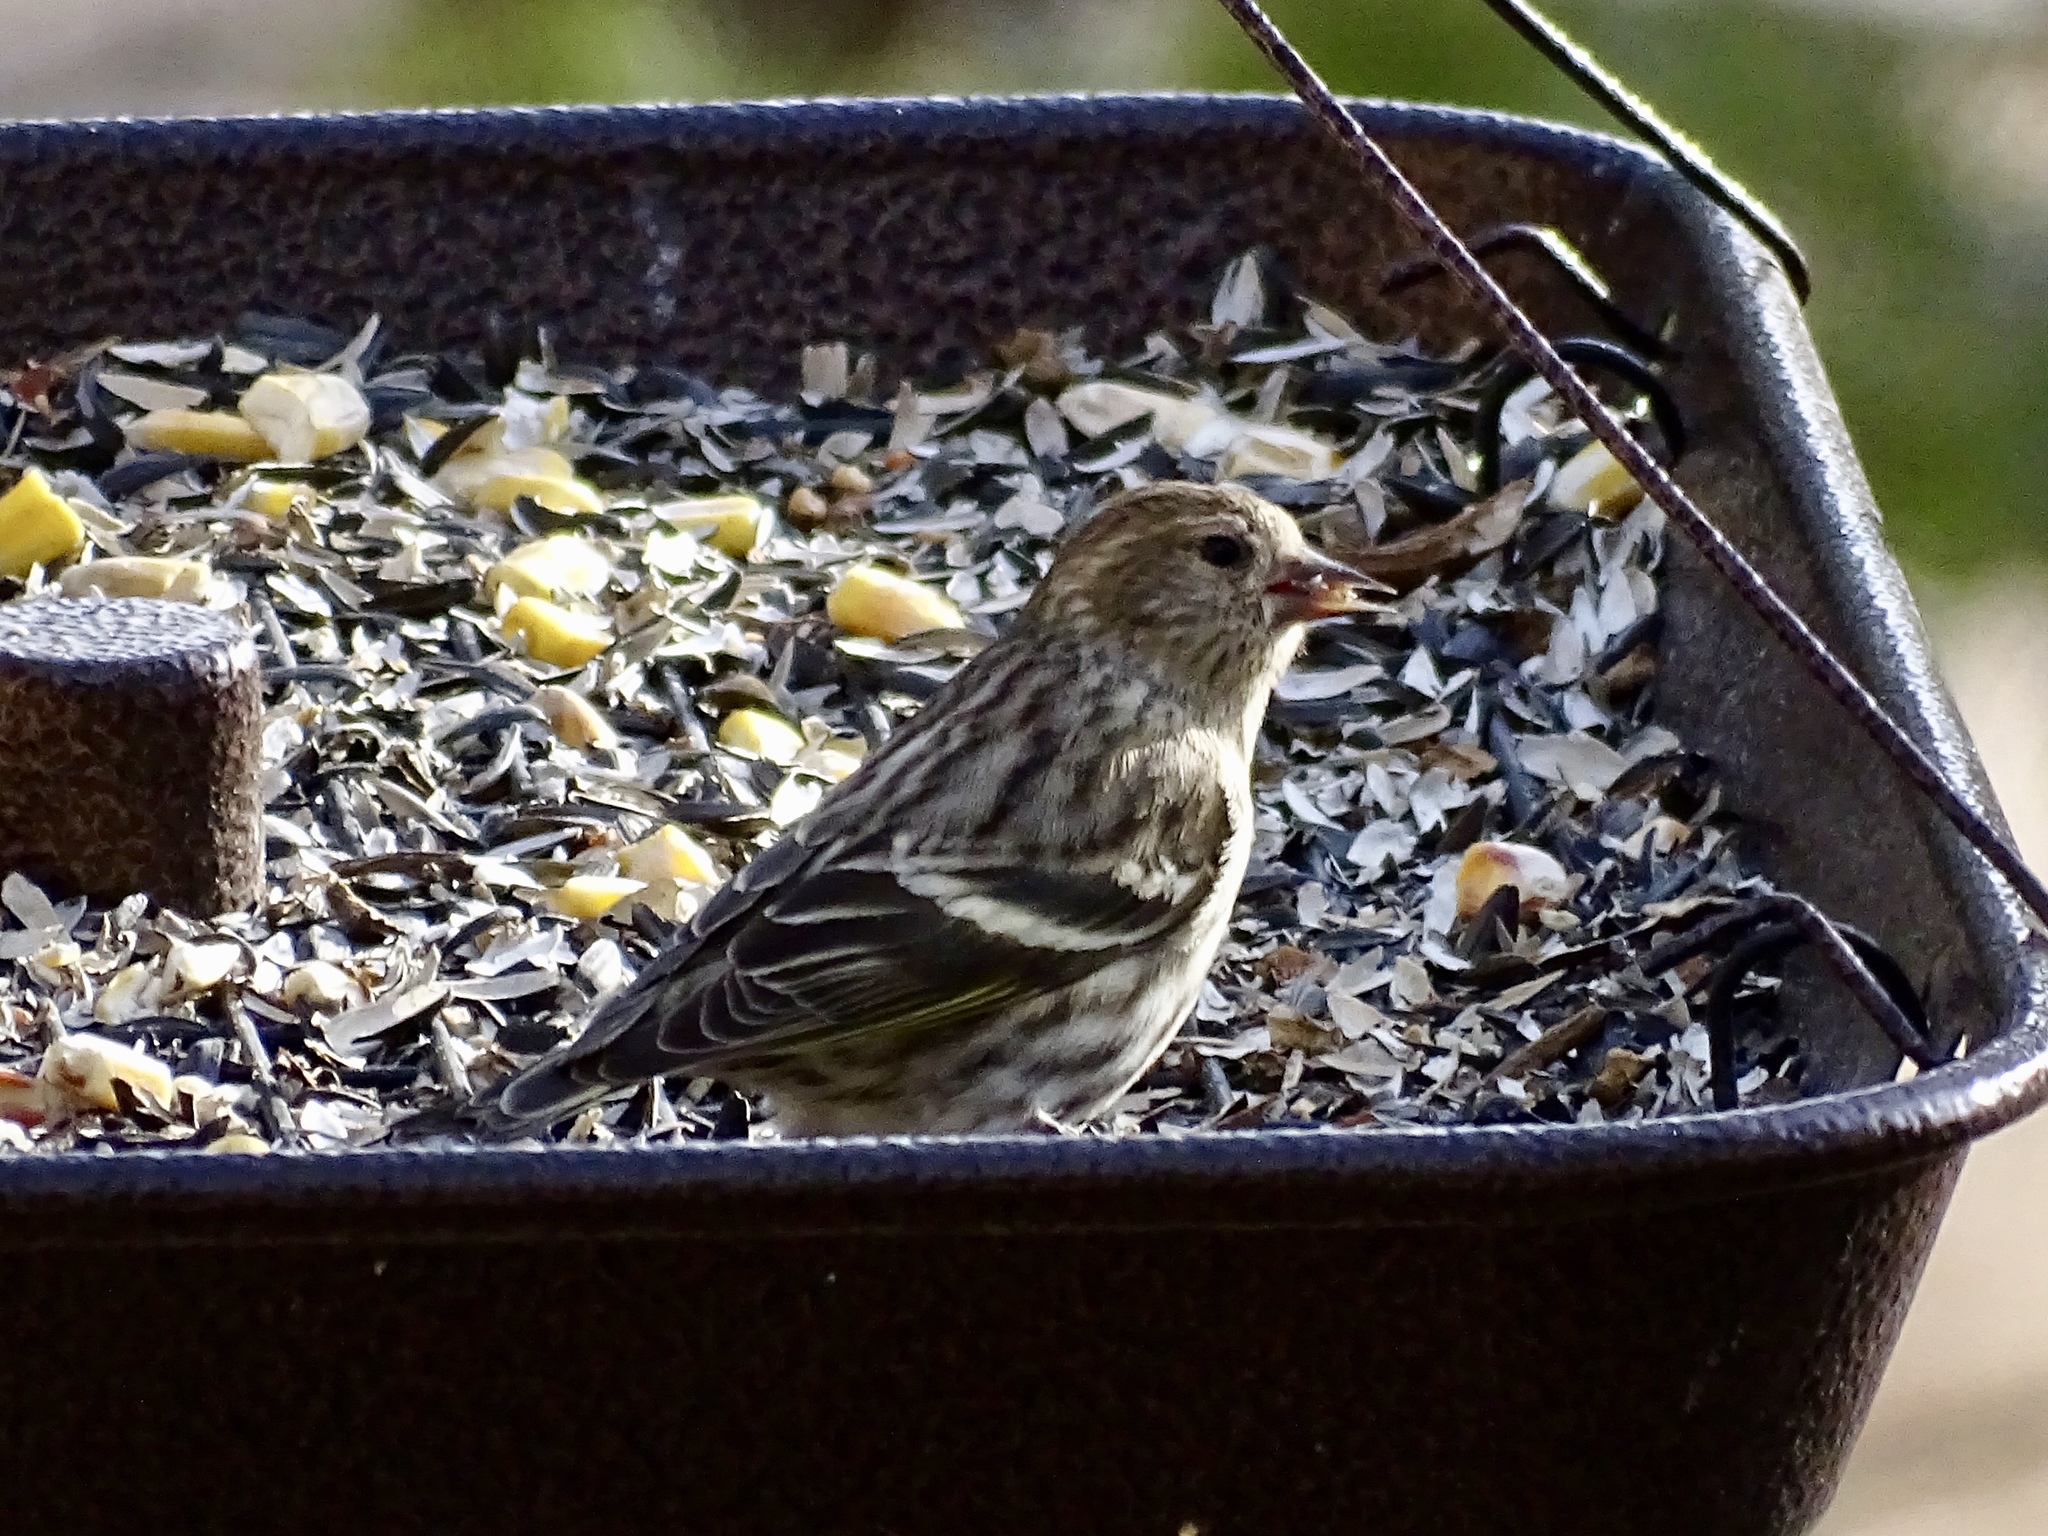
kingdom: Animalia
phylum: Chordata
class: Aves
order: Passeriformes
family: Fringillidae
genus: Spinus
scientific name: Spinus pinus
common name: Pine siskin
